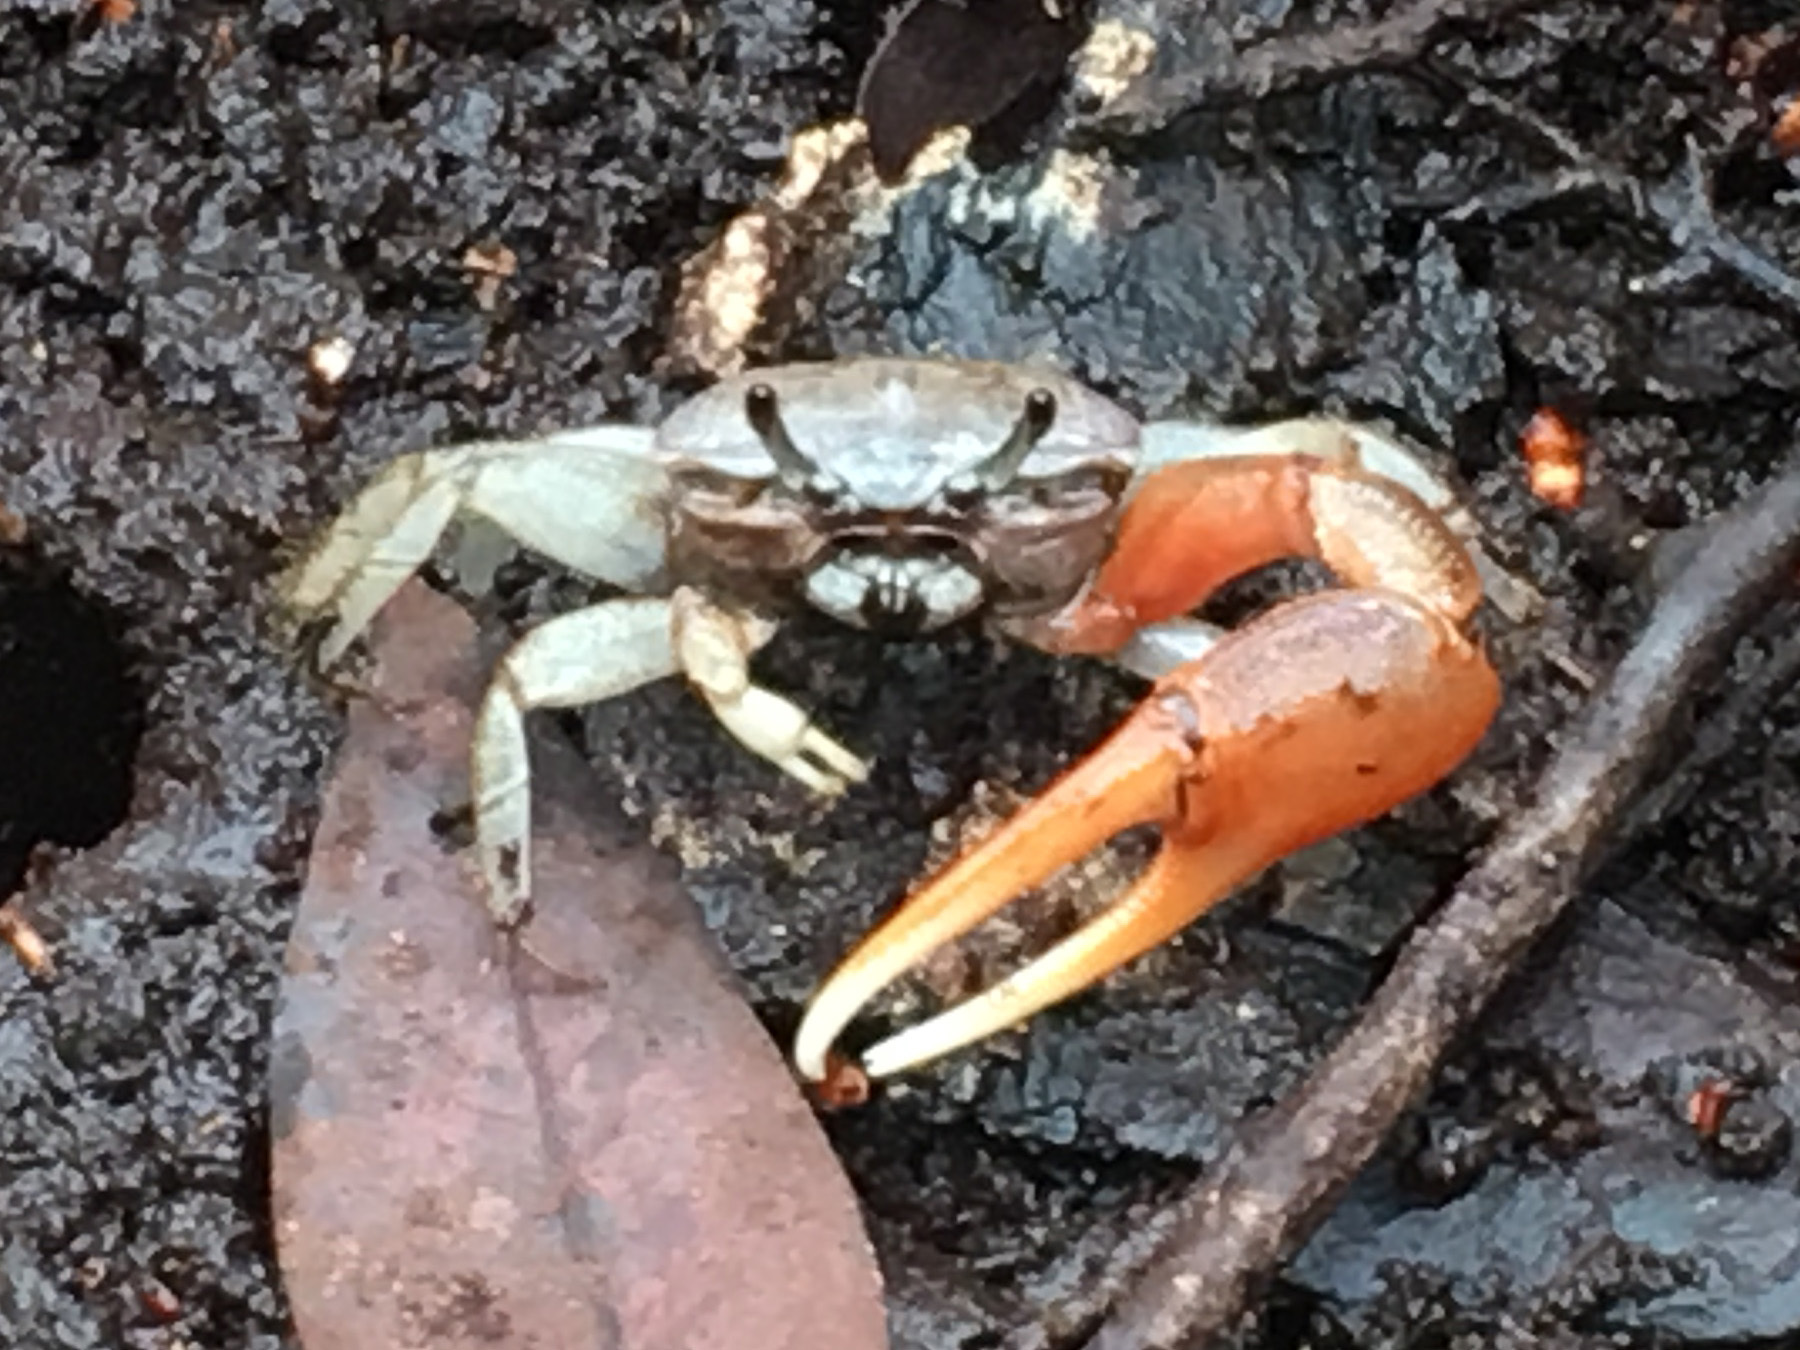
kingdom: Animalia
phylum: Arthropoda
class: Malacostraca
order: Decapoda
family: Ocypodidae
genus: Minuca
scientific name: Minuca galapagensis
